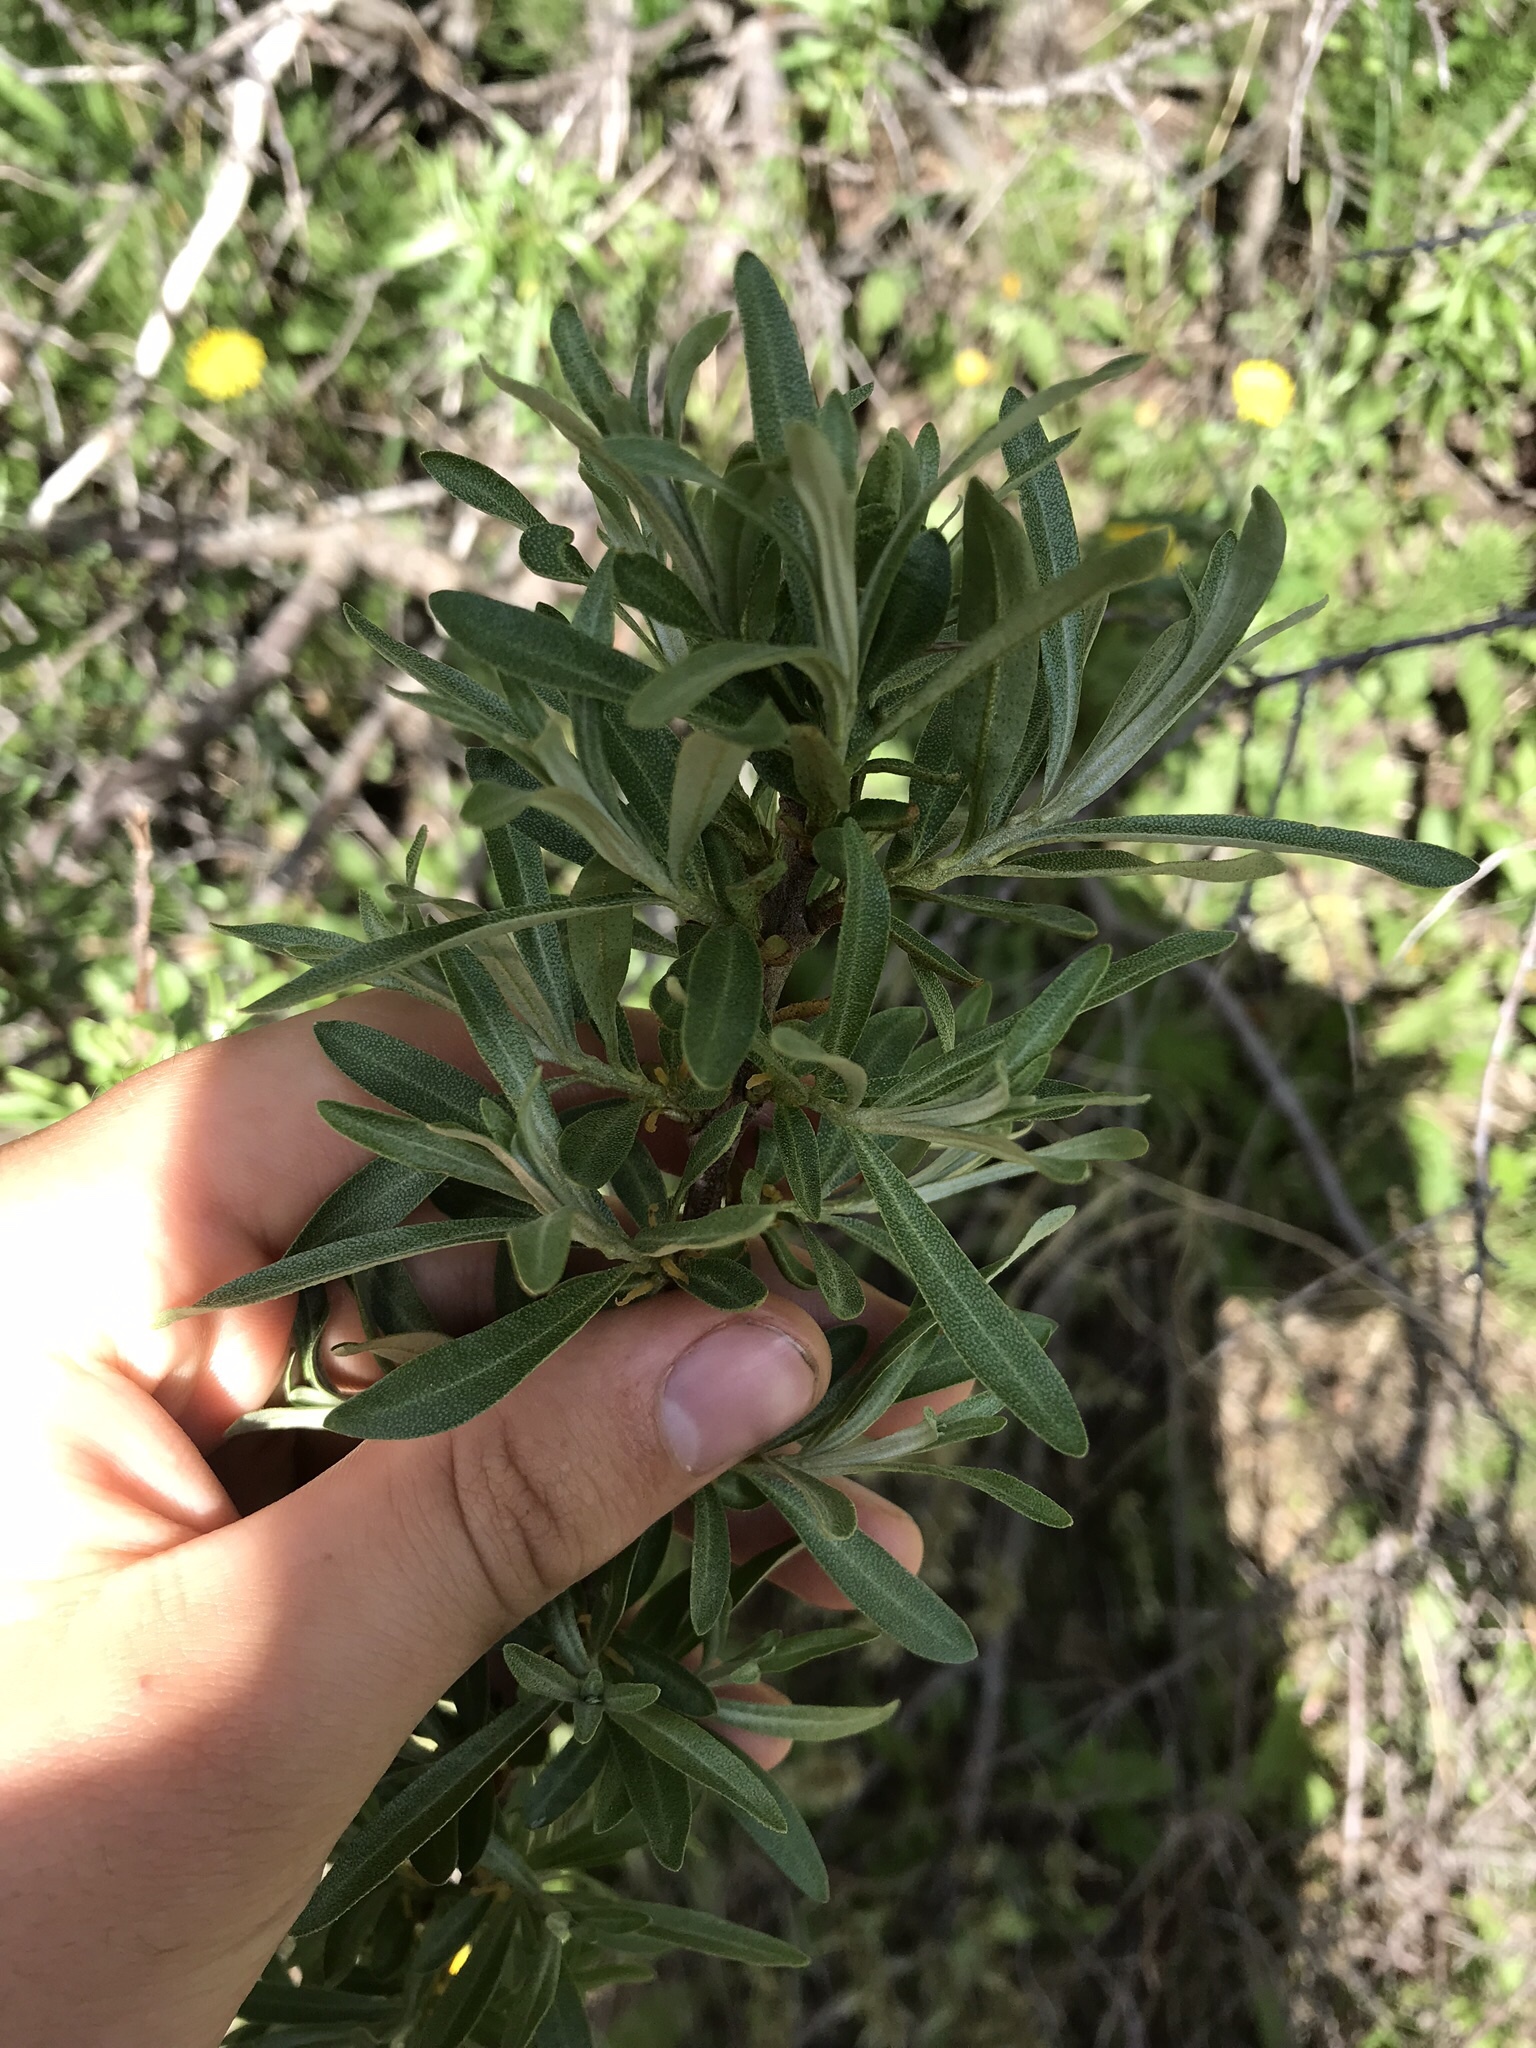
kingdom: Plantae
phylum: Tracheophyta
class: Magnoliopsida
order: Rosales
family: Elaeagnaceae
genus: Hippophae
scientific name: Hippophae rhamnoides
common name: Sea-buckthorn
